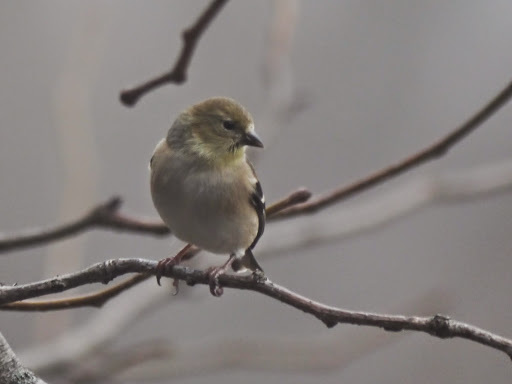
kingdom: Animalia
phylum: Chordata
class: Aves
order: Passeriformes
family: Fringillidae
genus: Spinus
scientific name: Spinus tristis
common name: American goldfinch
